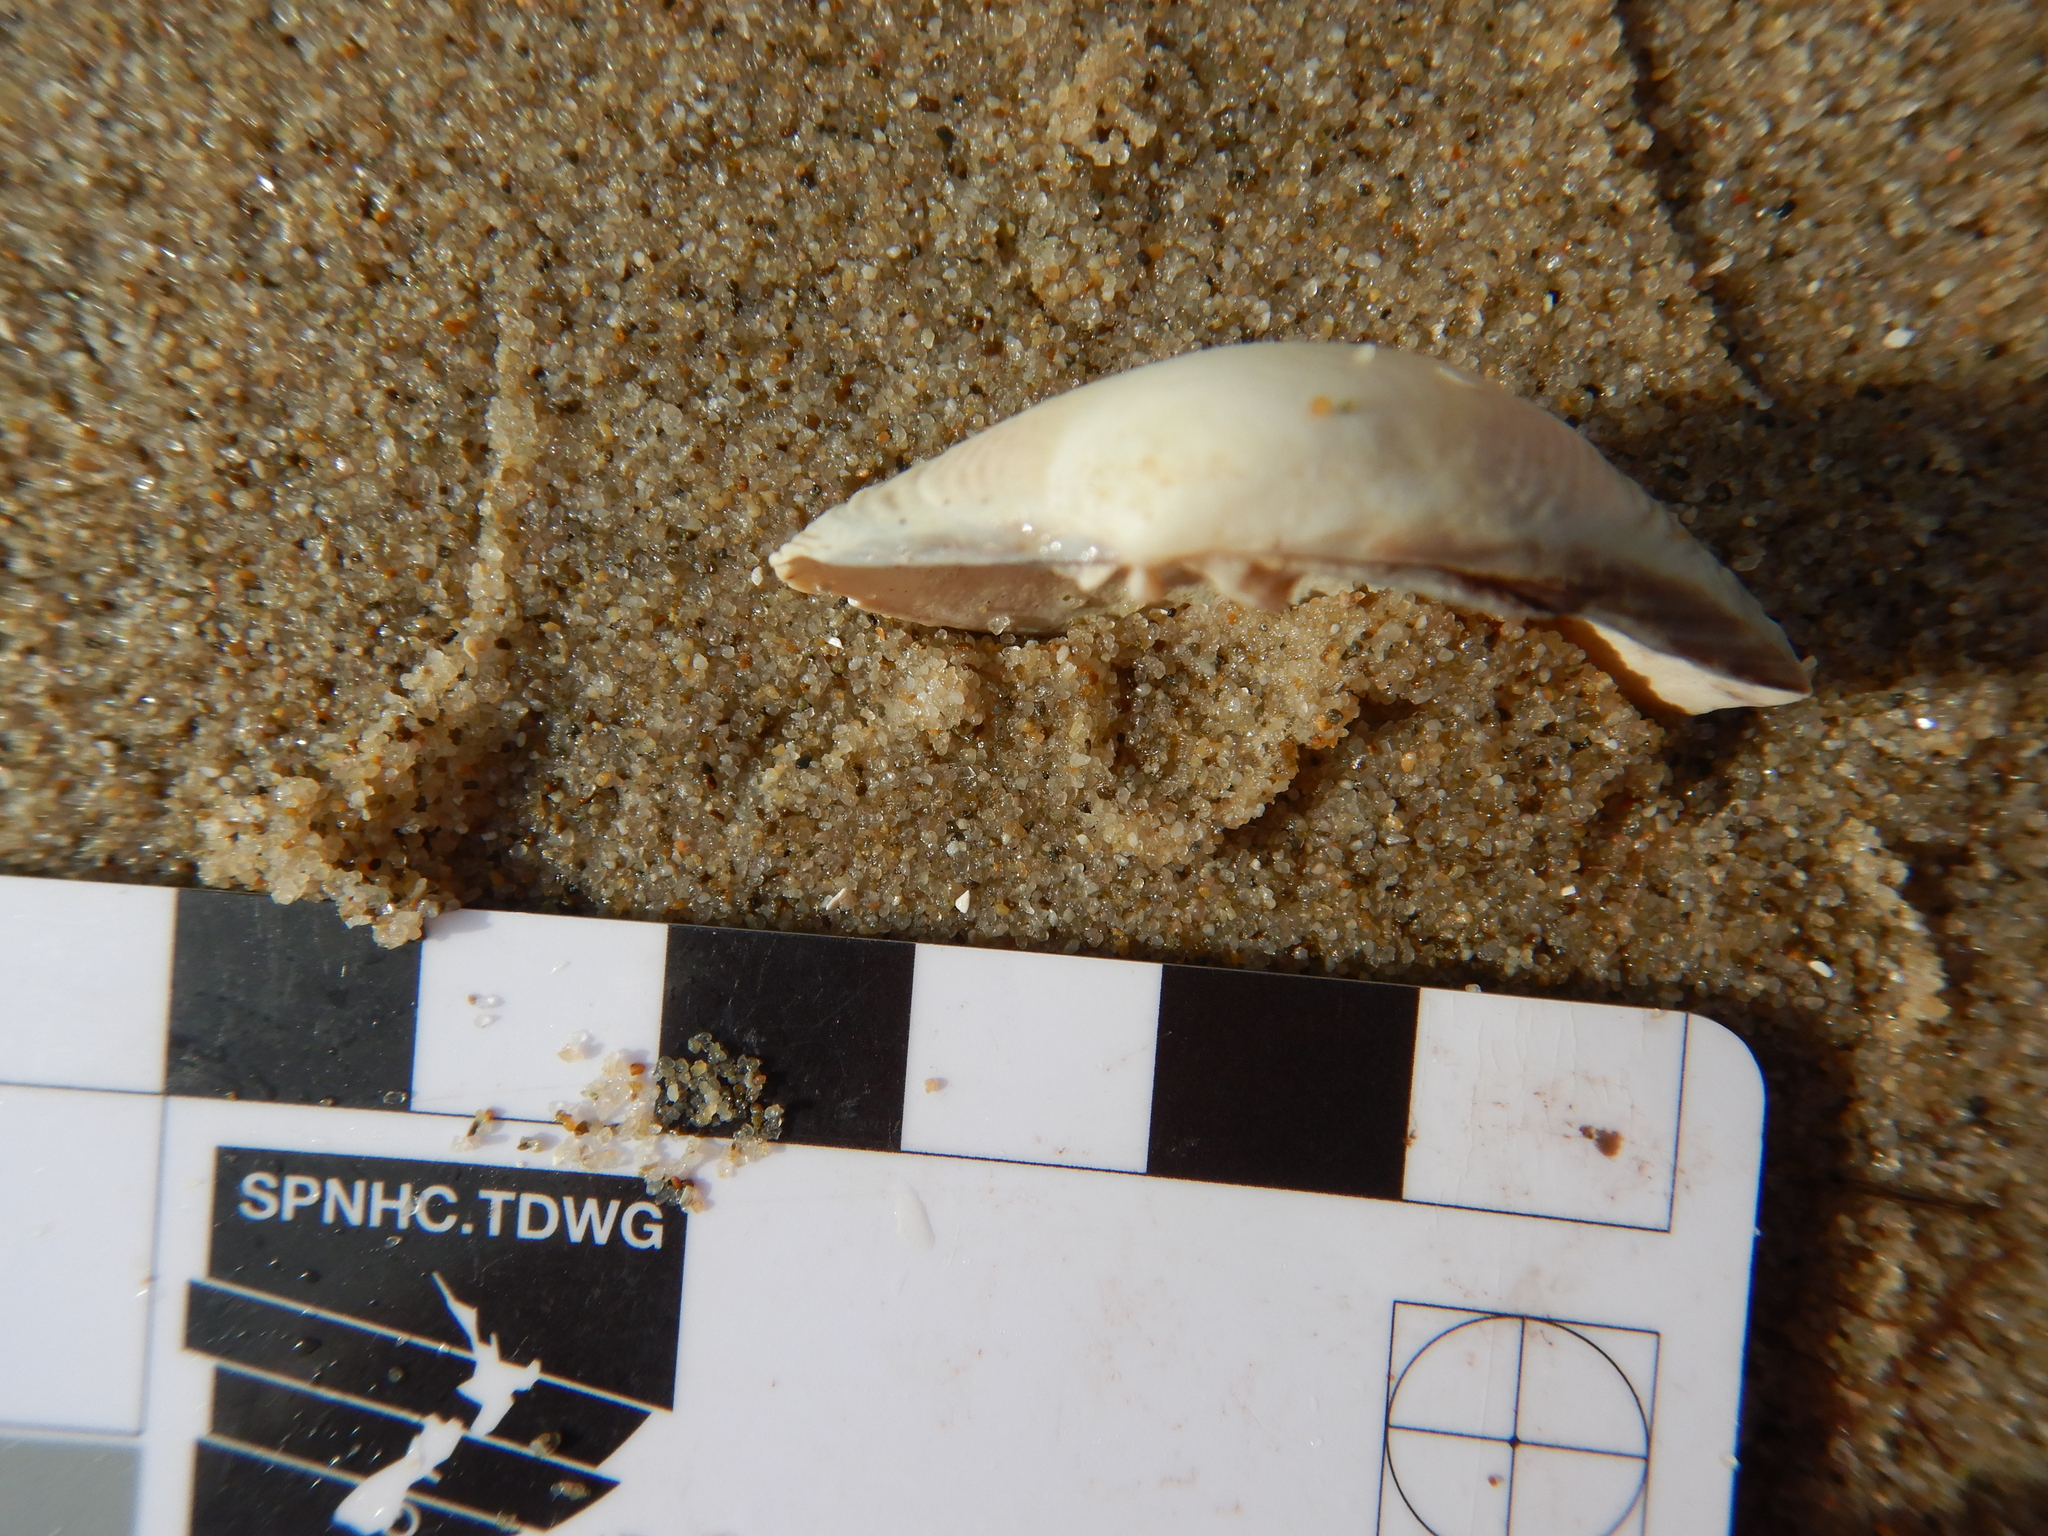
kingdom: Animalia
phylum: Mollusca
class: Bivalvia
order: Venerida
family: Veneridae
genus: Katelysia
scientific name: Katelysia rhytiphora
